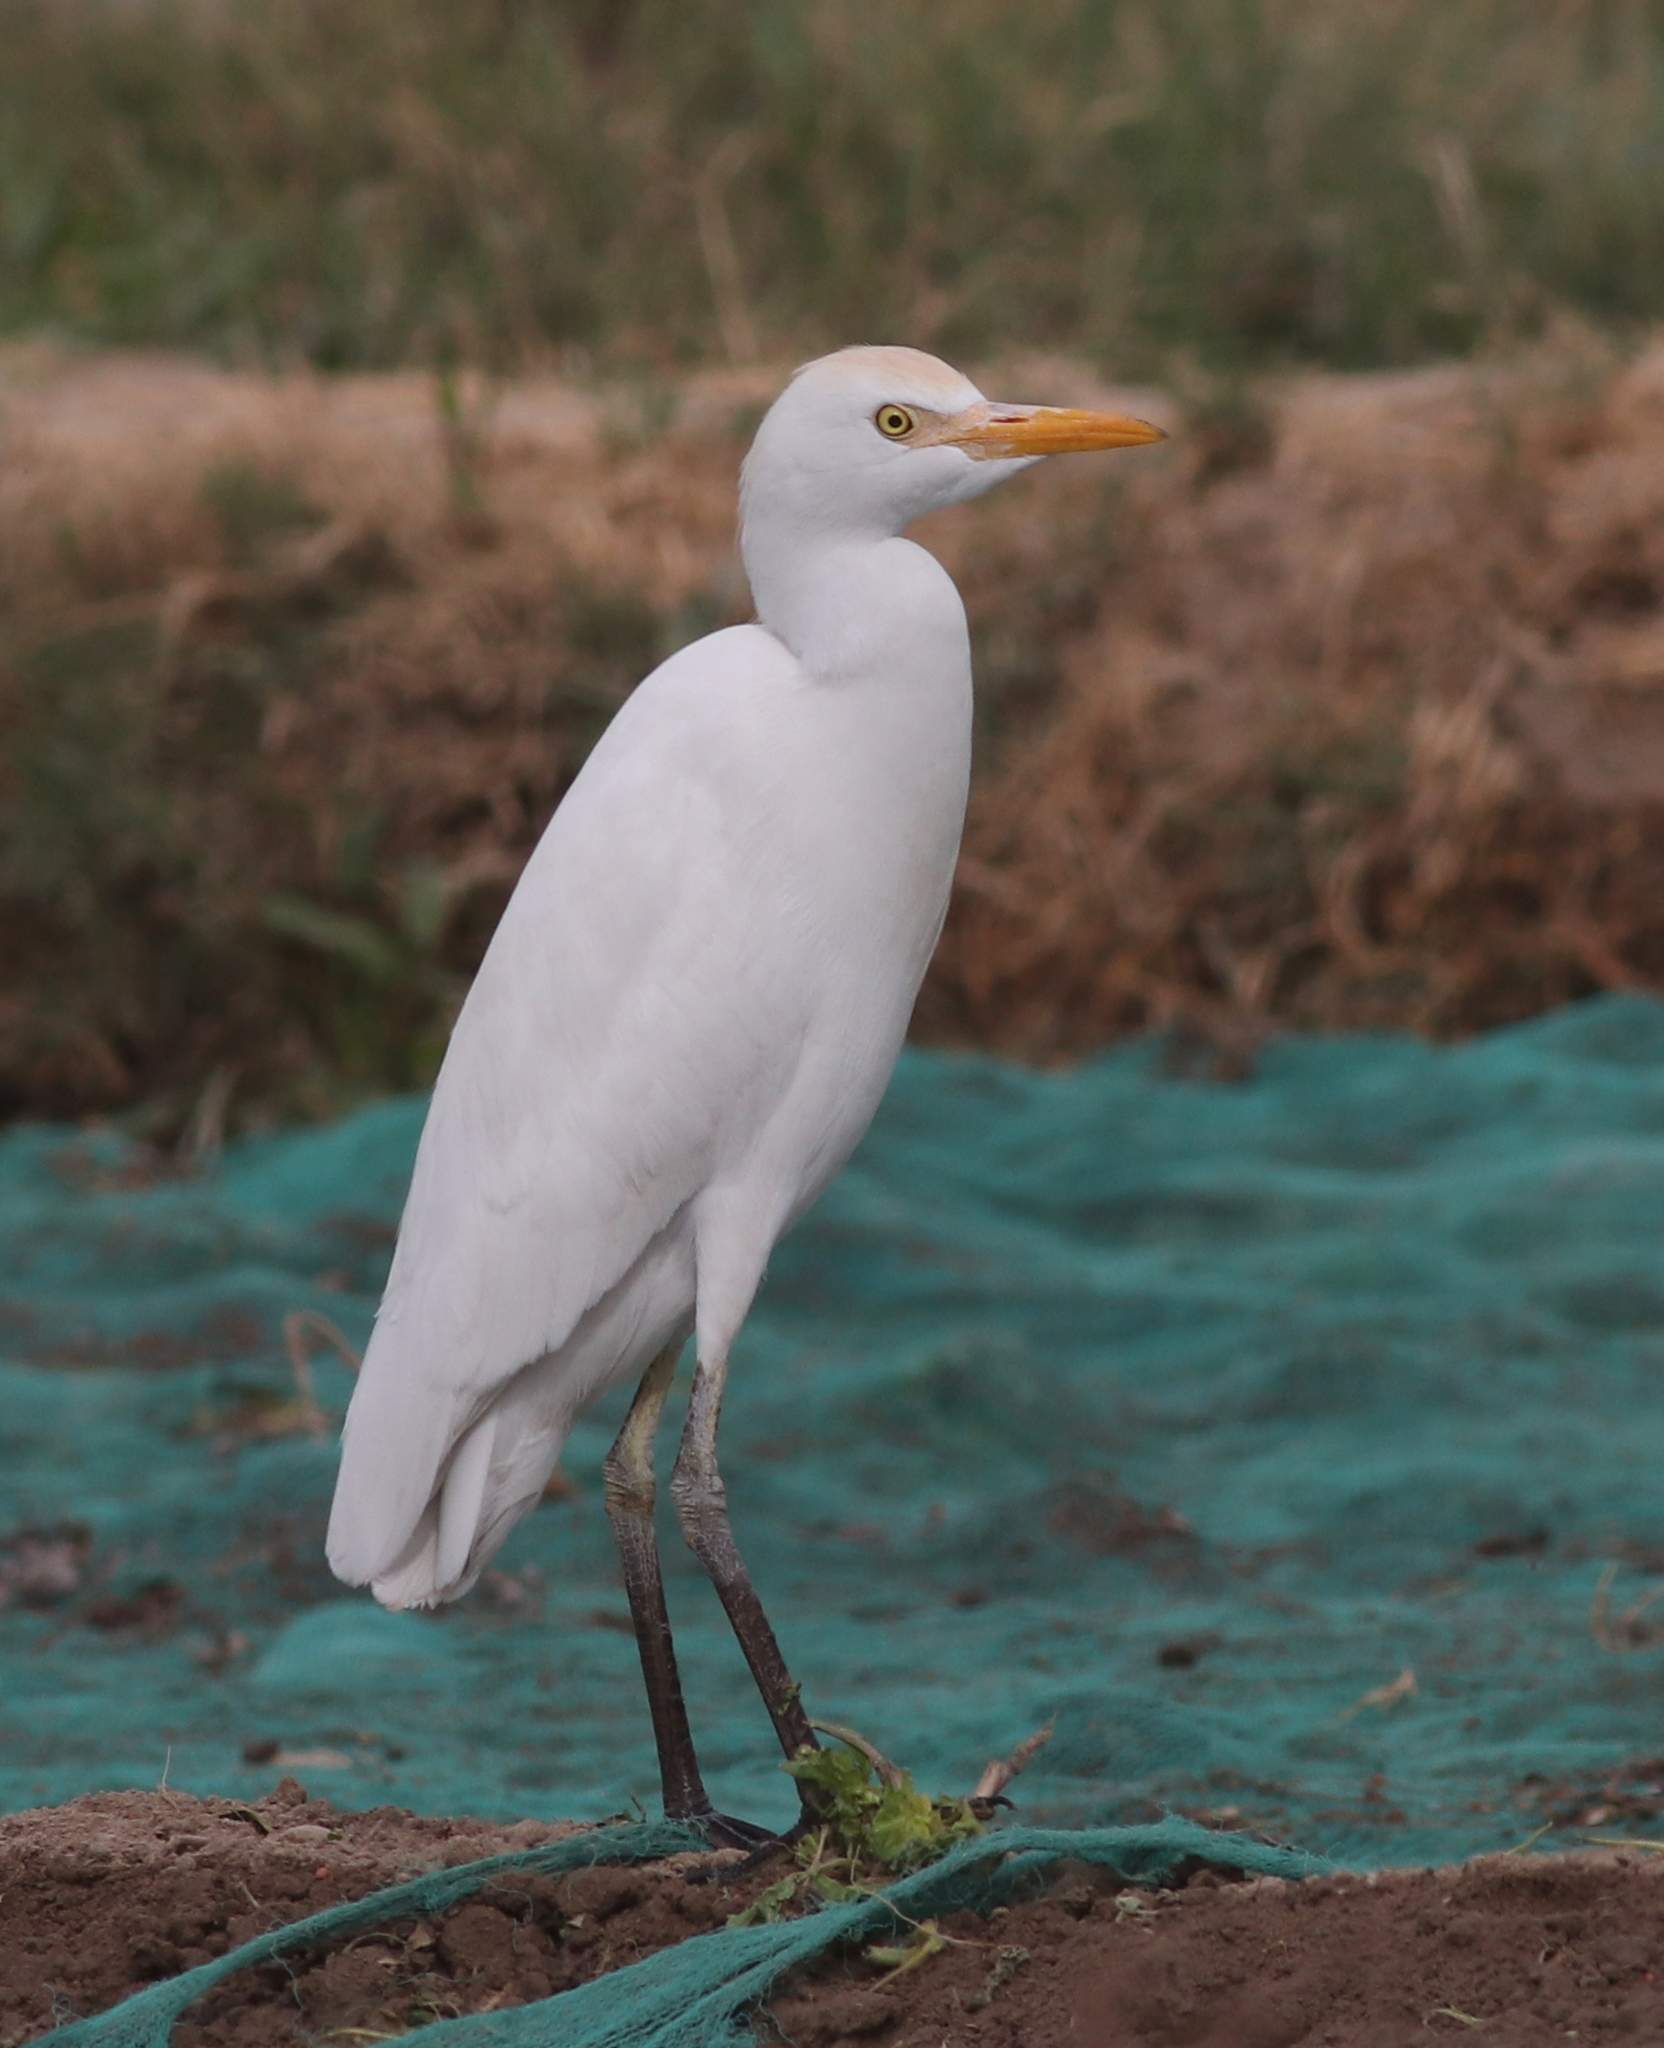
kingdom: Animalia
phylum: Chordata
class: Aves
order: Pelecaniformes
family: Ardeidae
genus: Bubulcus
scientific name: Bubulcus ibis
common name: Cattle egret
